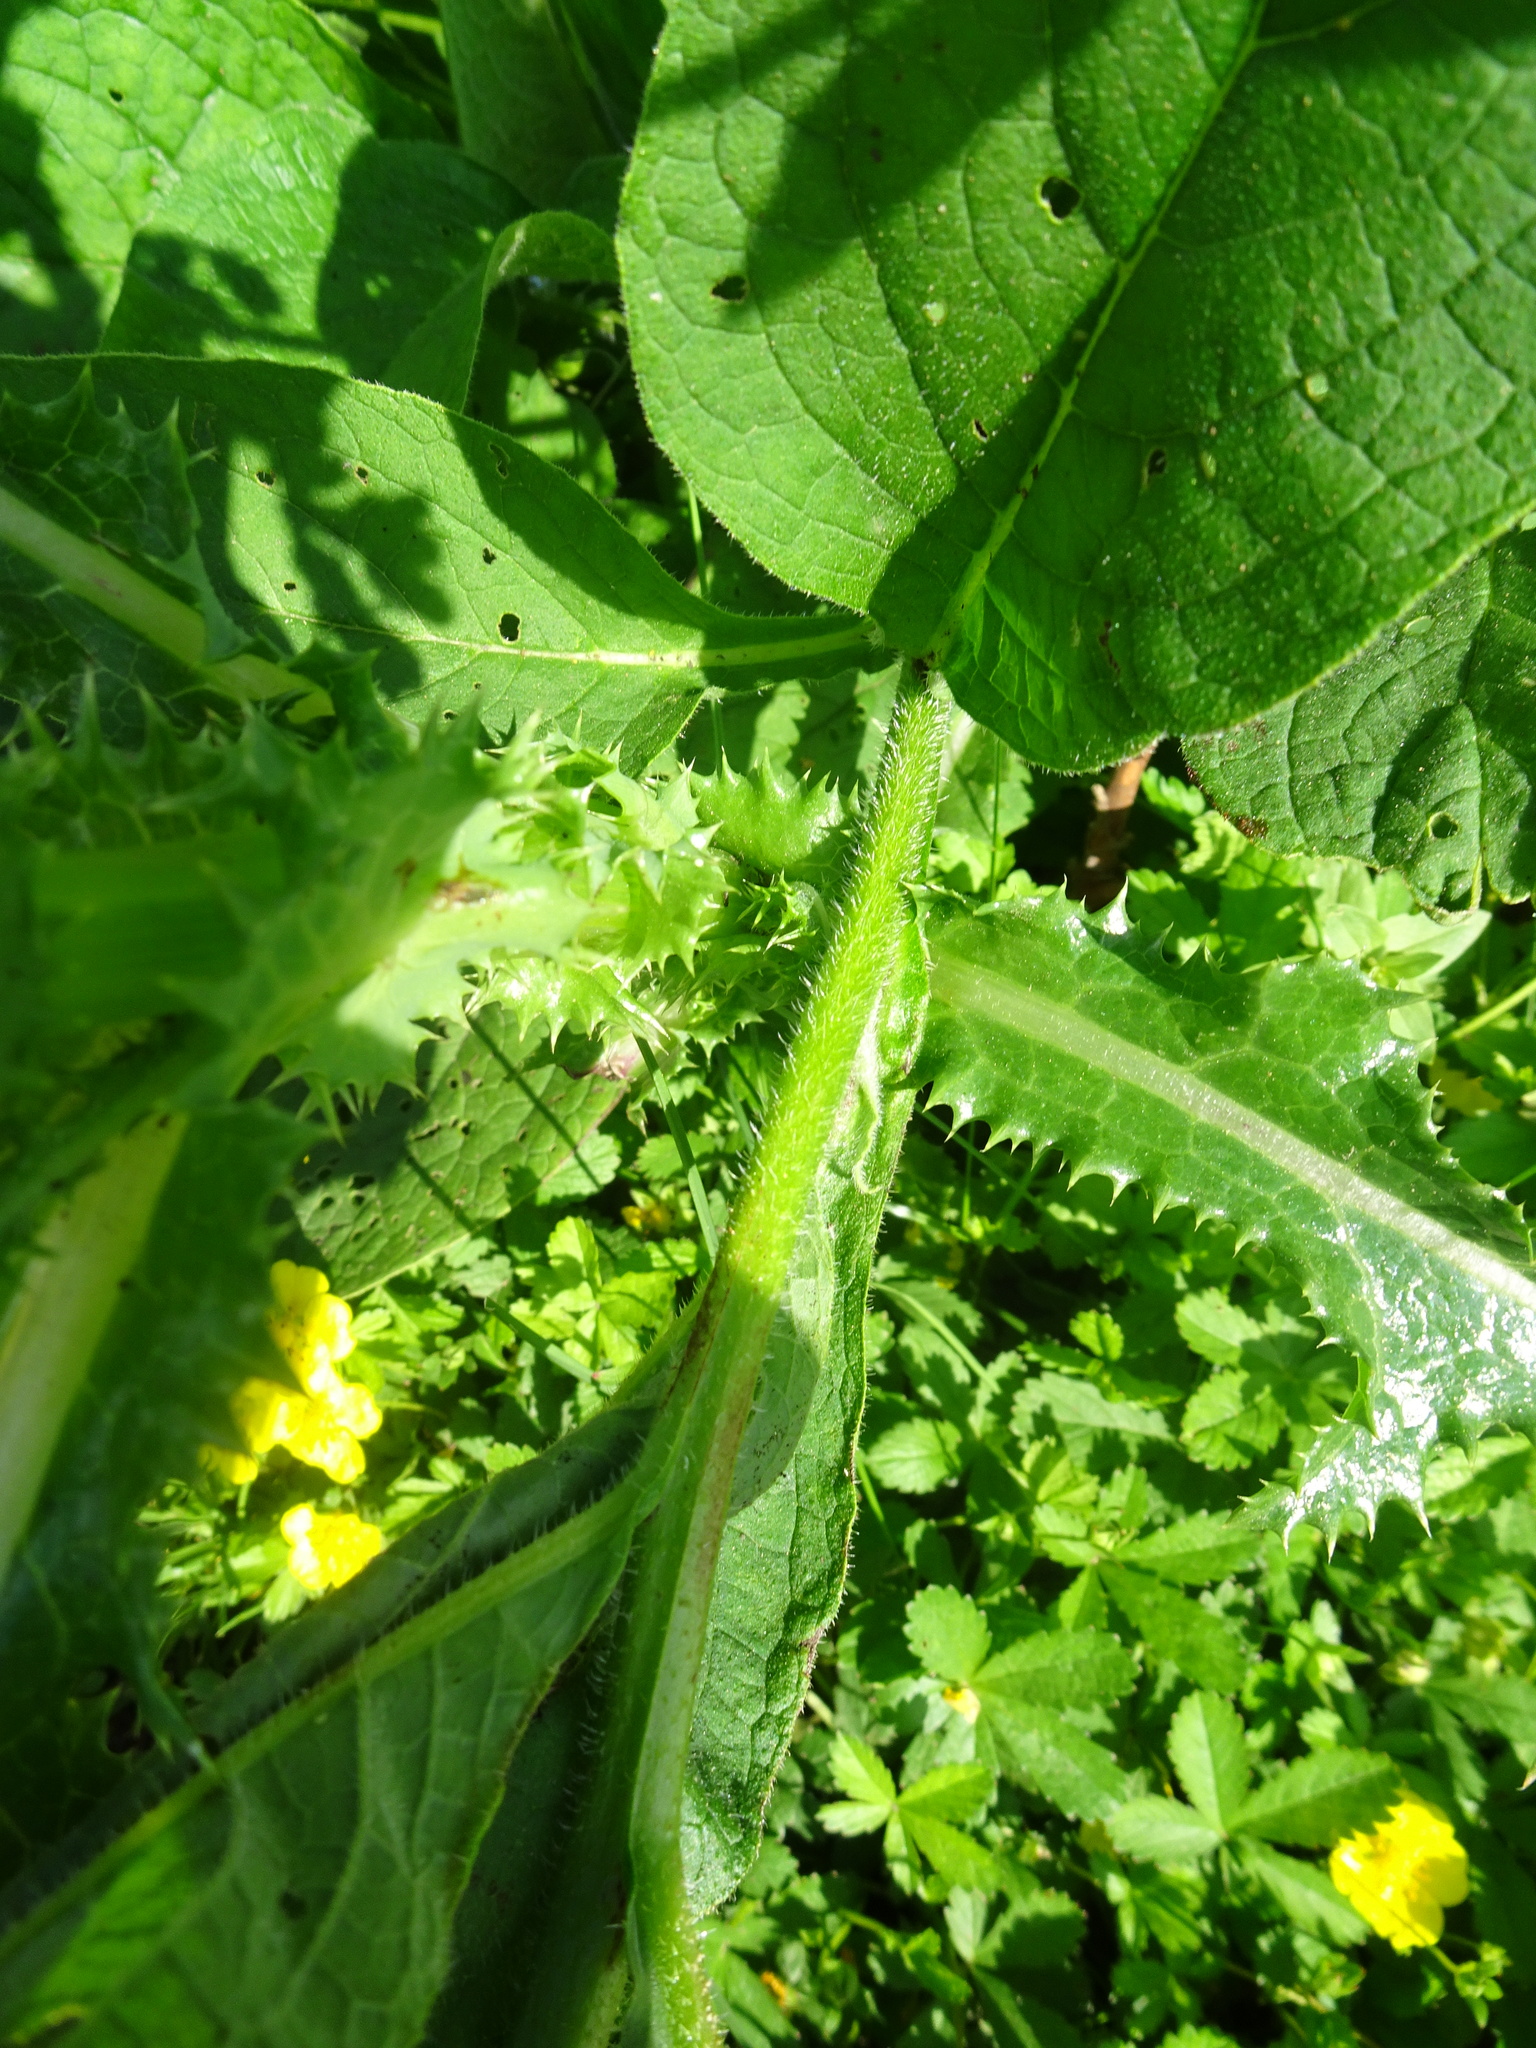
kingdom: Plantae
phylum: Tracheophyta
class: Magnoliopsida
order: Boraginales
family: Boraginaceae
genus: Symphytum
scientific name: Symphytum uplandicum
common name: Russian comfrey
